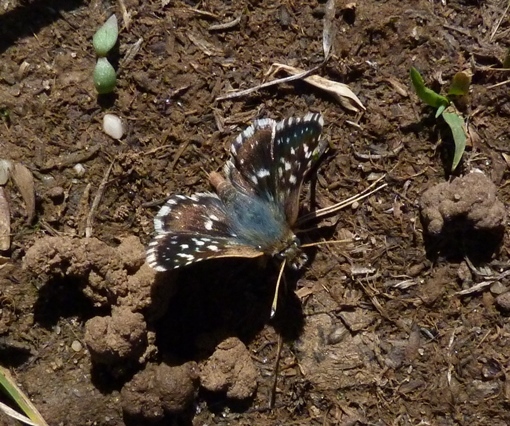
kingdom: Animalia
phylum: Arthropoda
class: Insecta
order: Lepidoptera
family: Hesperiidae
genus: Spialia
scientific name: Spialia sertorius
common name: Red underwing skipper
